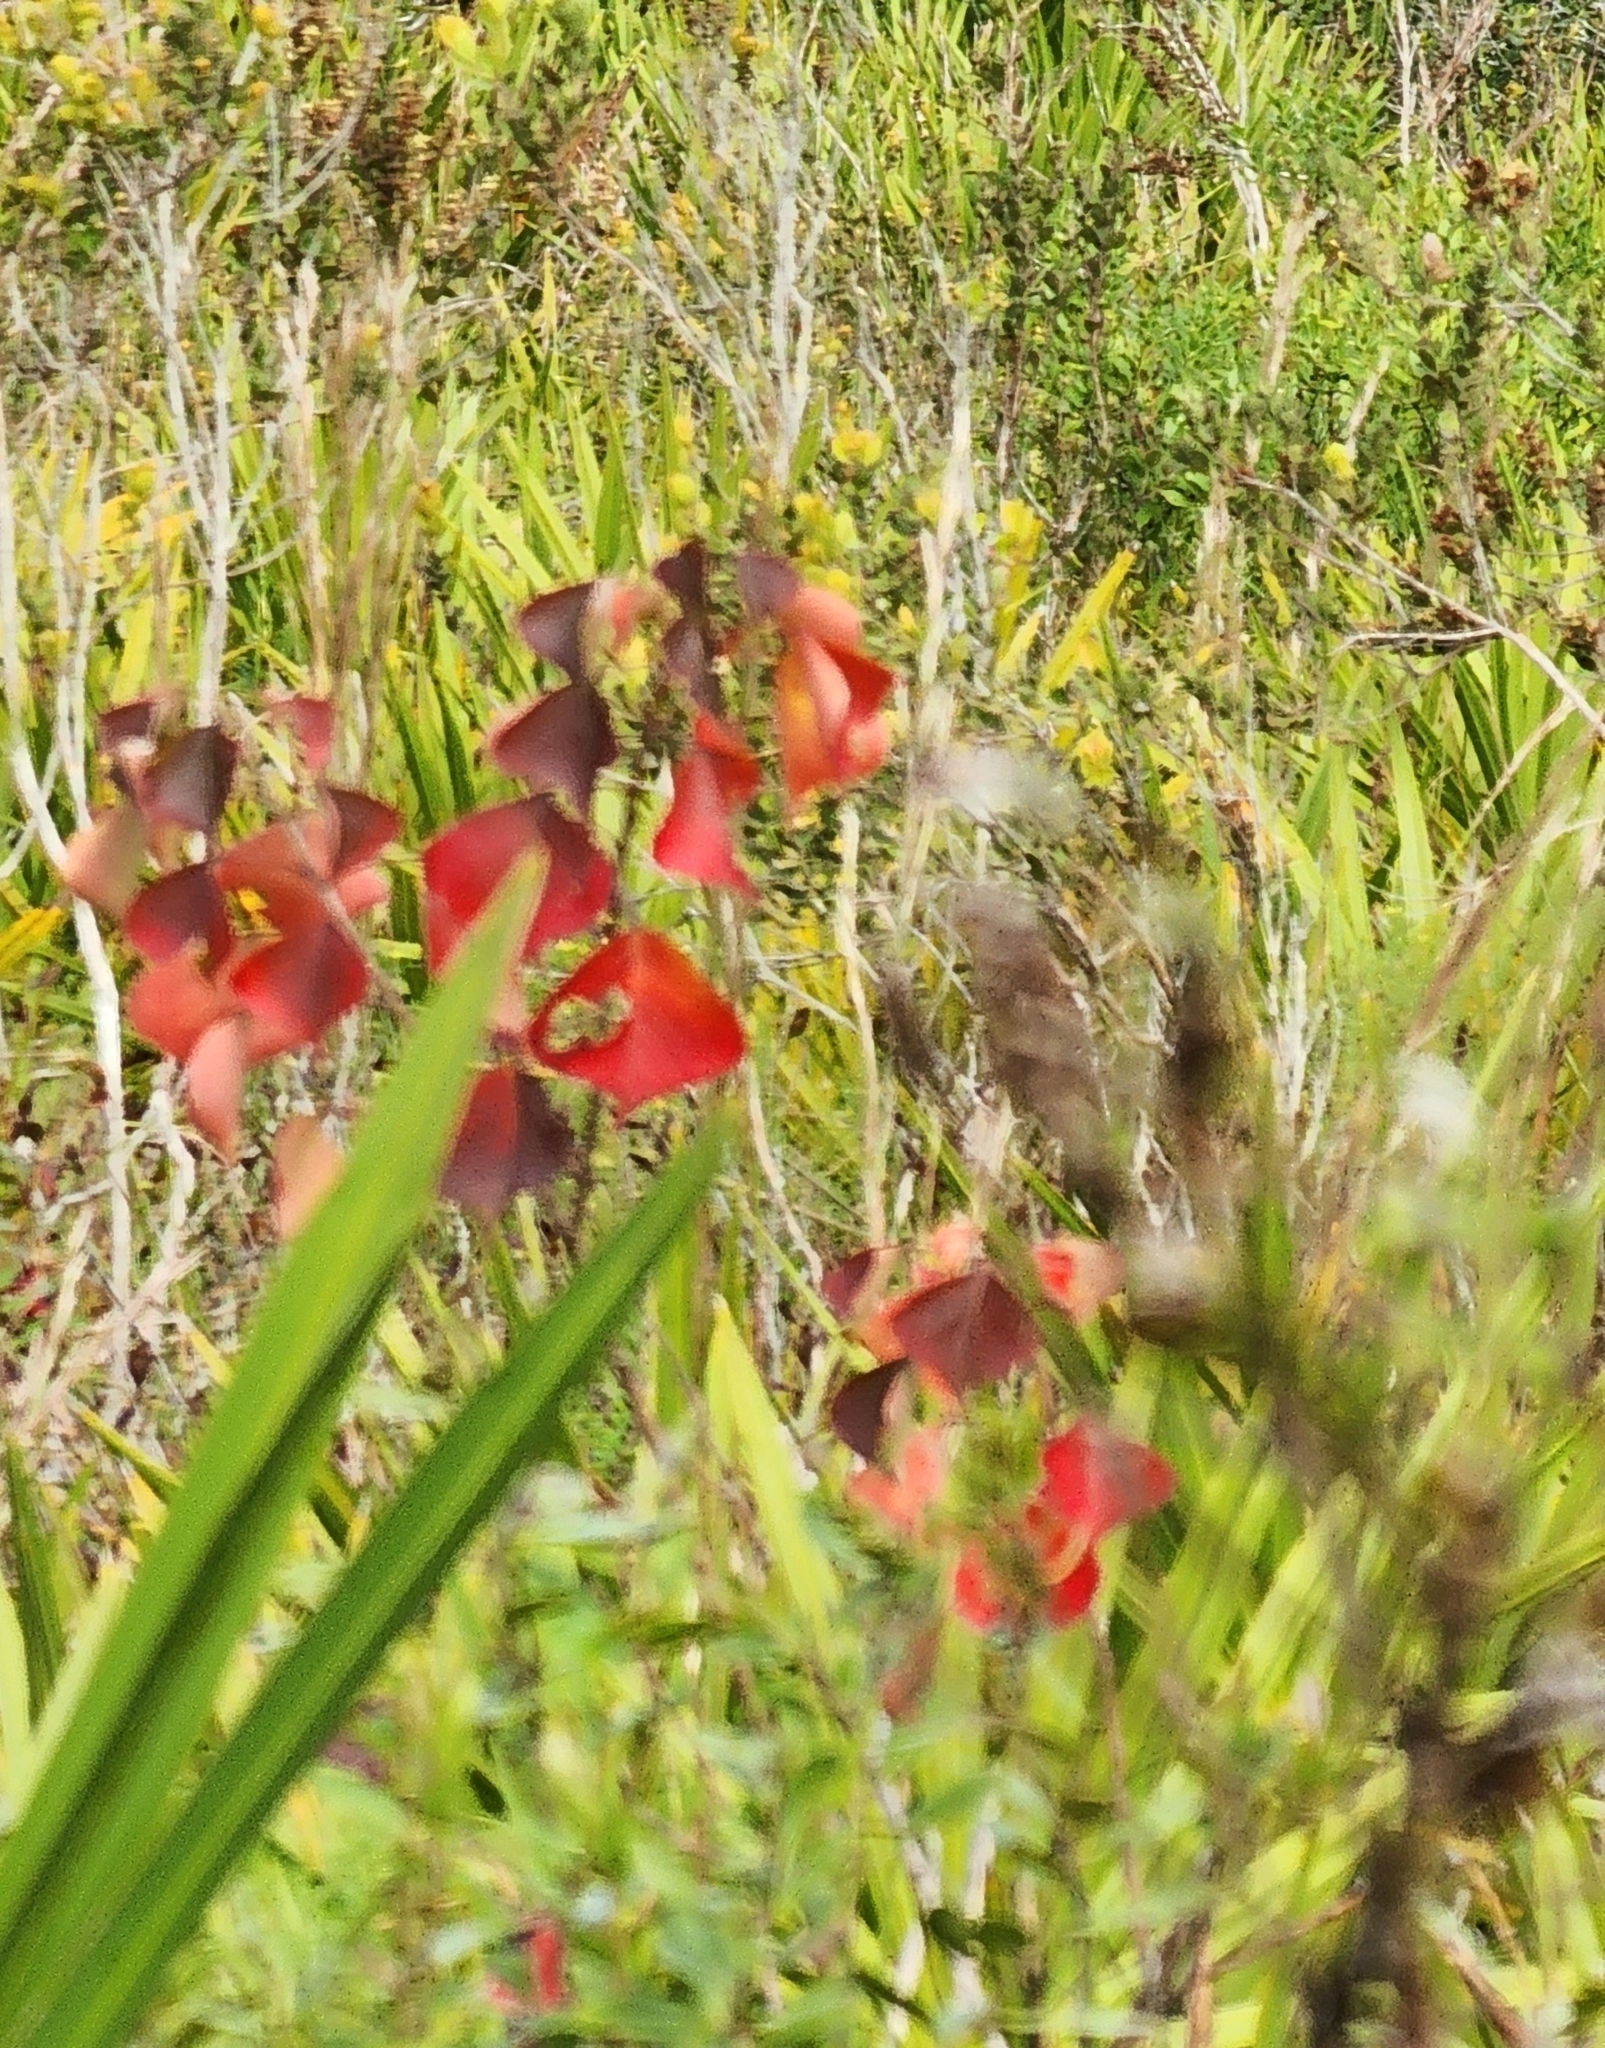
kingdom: Plantae
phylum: Tracheophyta
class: Magnoliopsida
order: Malpighiales
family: Euphorbiaceae
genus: Triadica
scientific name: Triadica sebifera
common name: Chinese tallow
